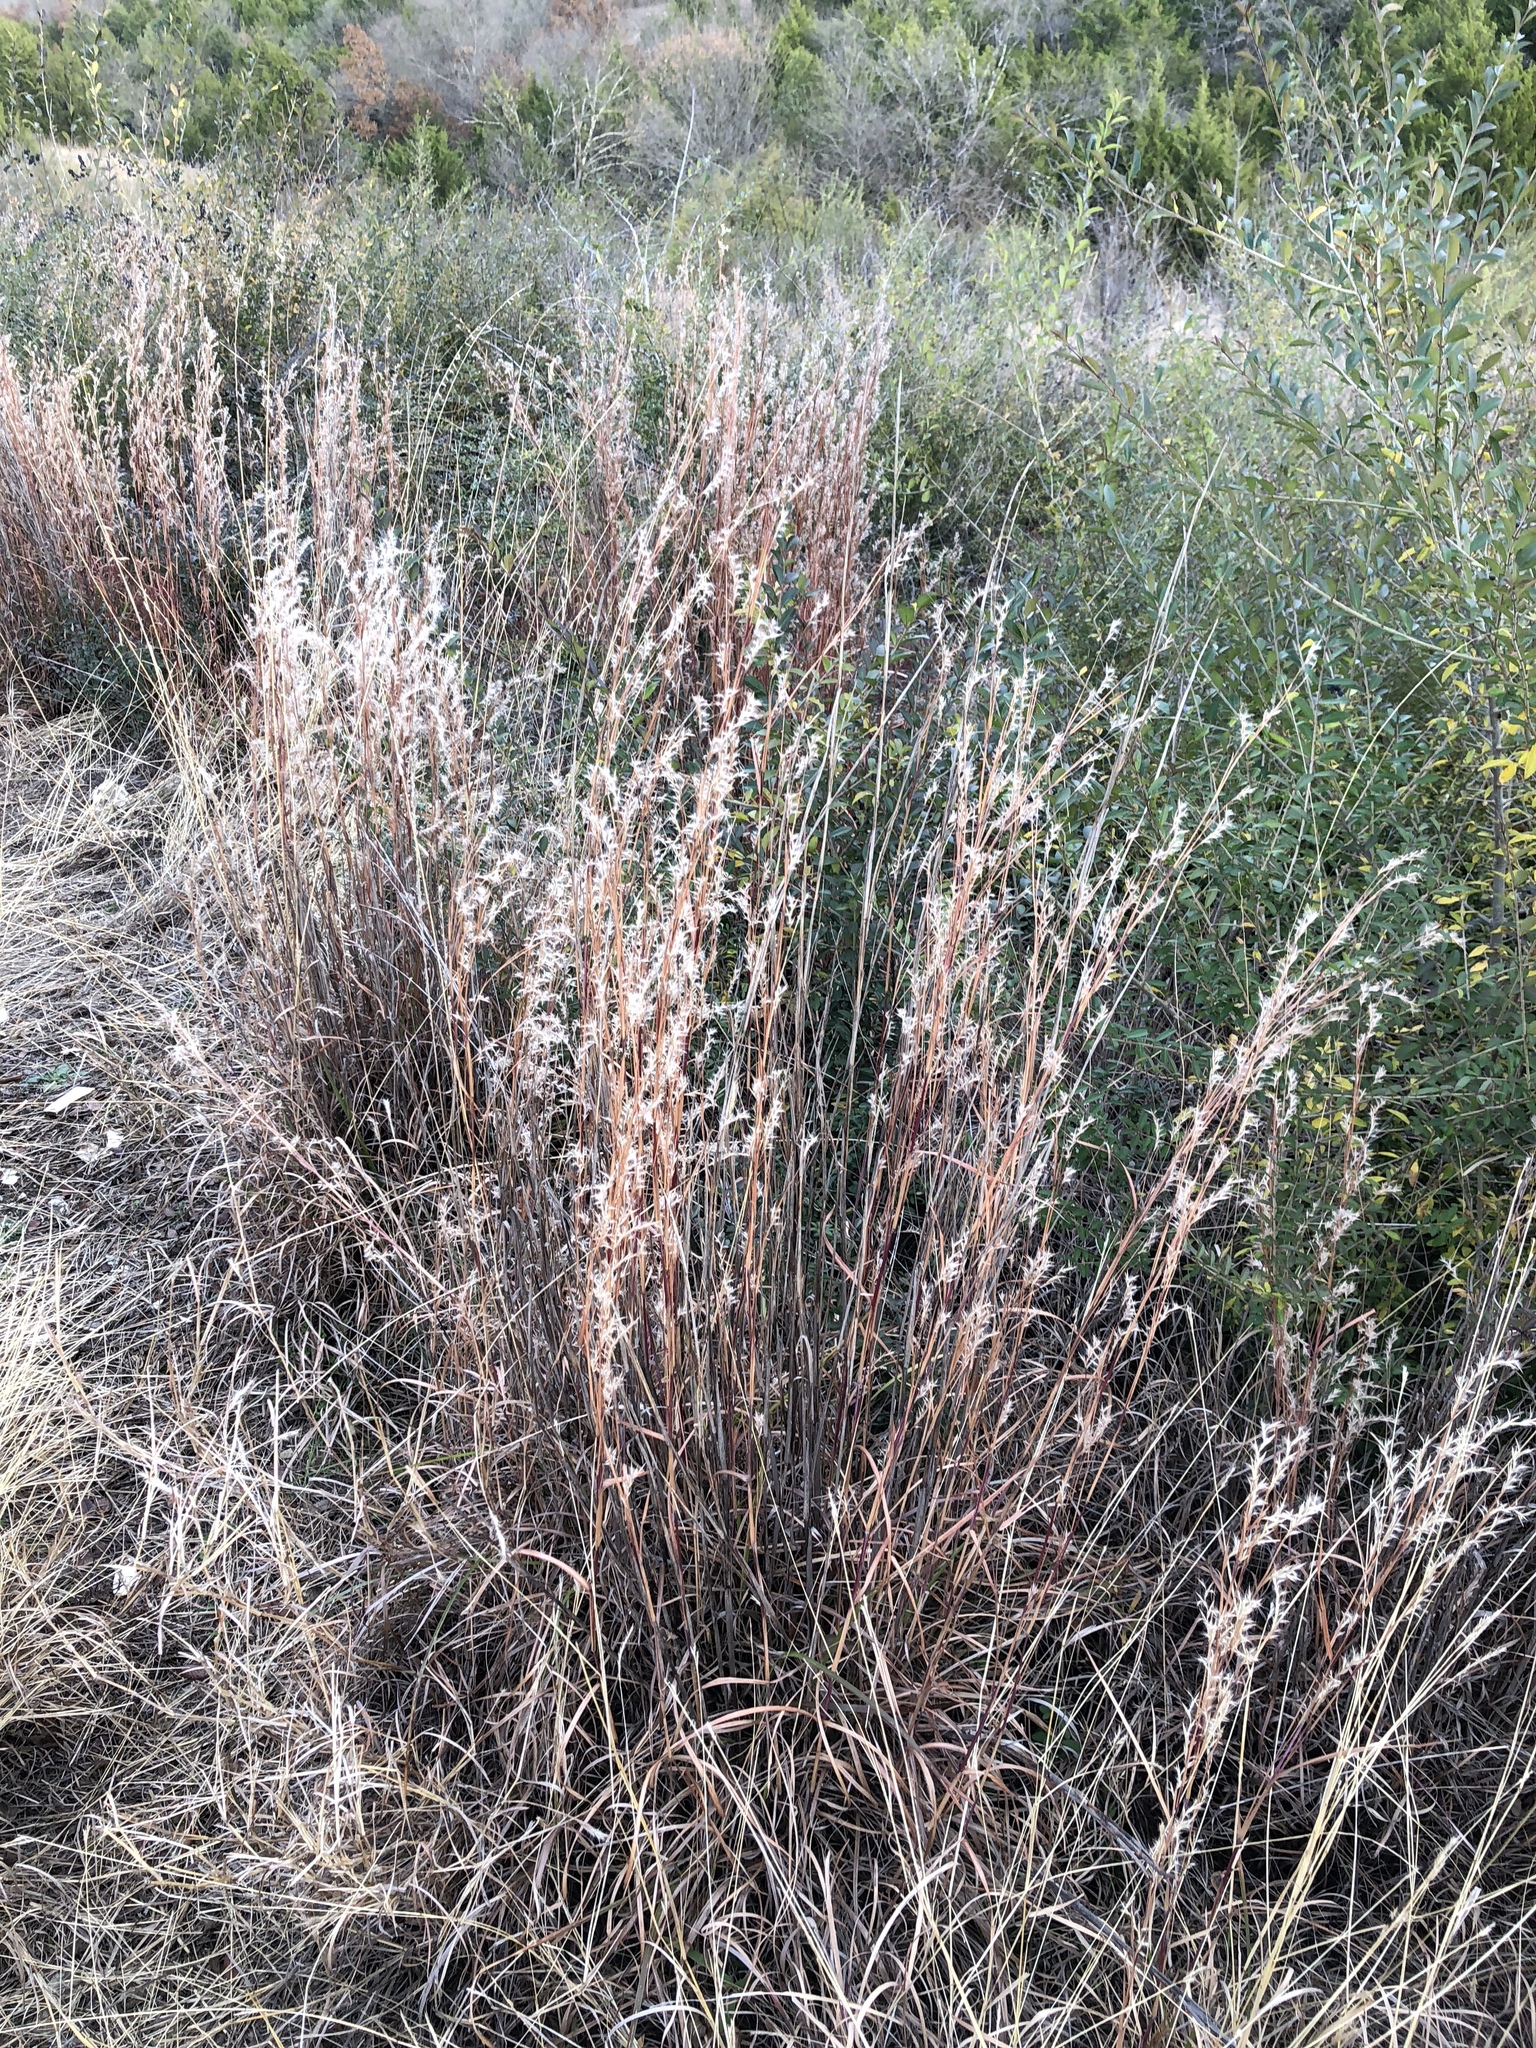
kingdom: Plantae
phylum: Tracheophyta
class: Liliopsida
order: Poales
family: Poaceae
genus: Schizachyrium
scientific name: Schizachyrium scoparium
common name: Little bluestem
